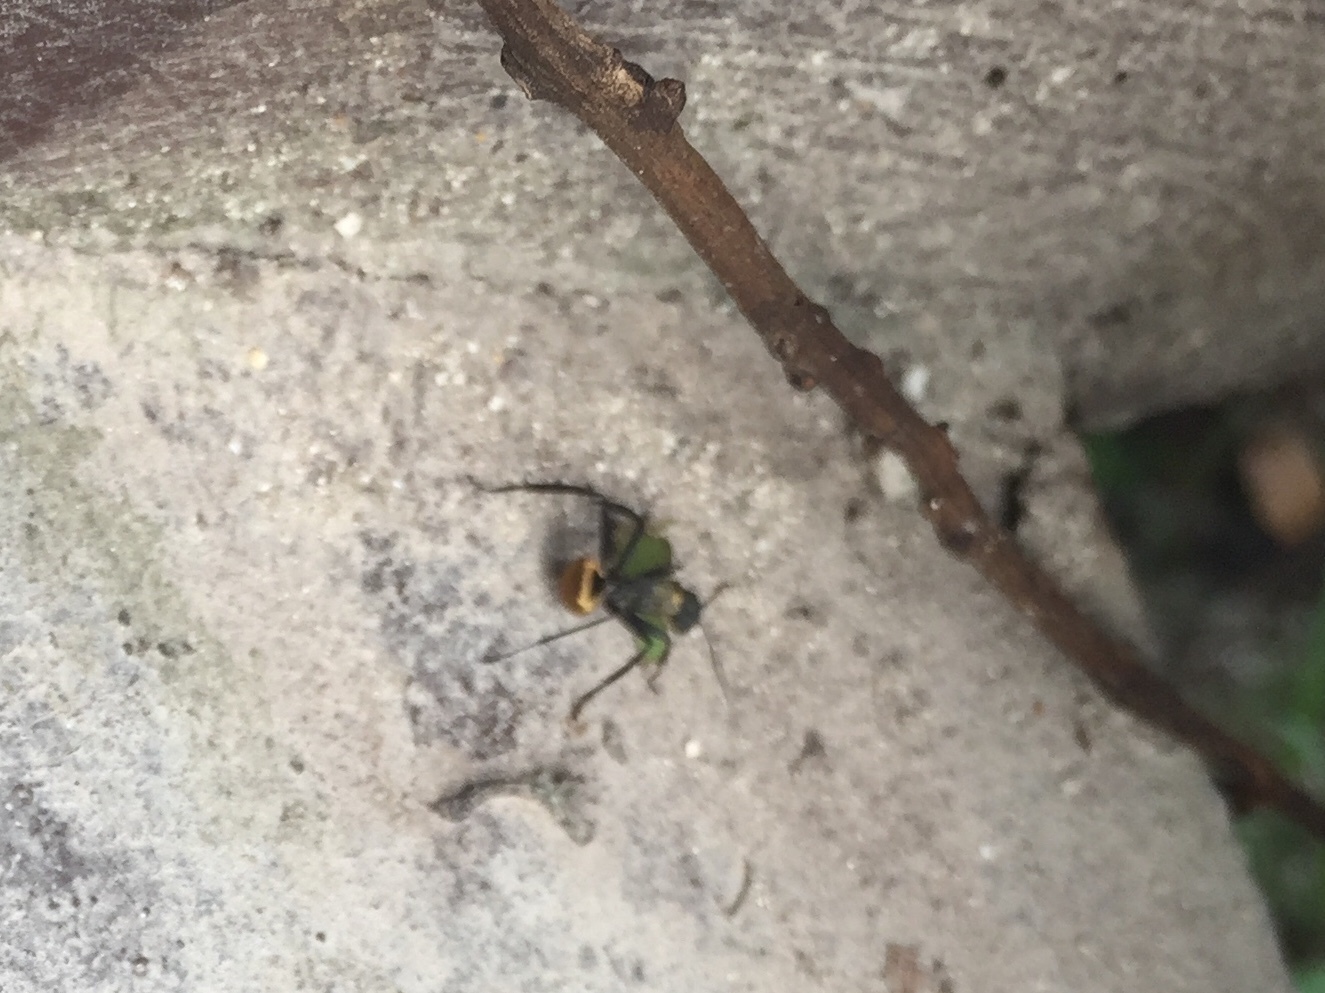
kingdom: Animalia
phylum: Arthropoda
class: Insecta
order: Hymenoptera
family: Formicidae
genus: Camponotus
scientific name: Camponotus sericeiventris
